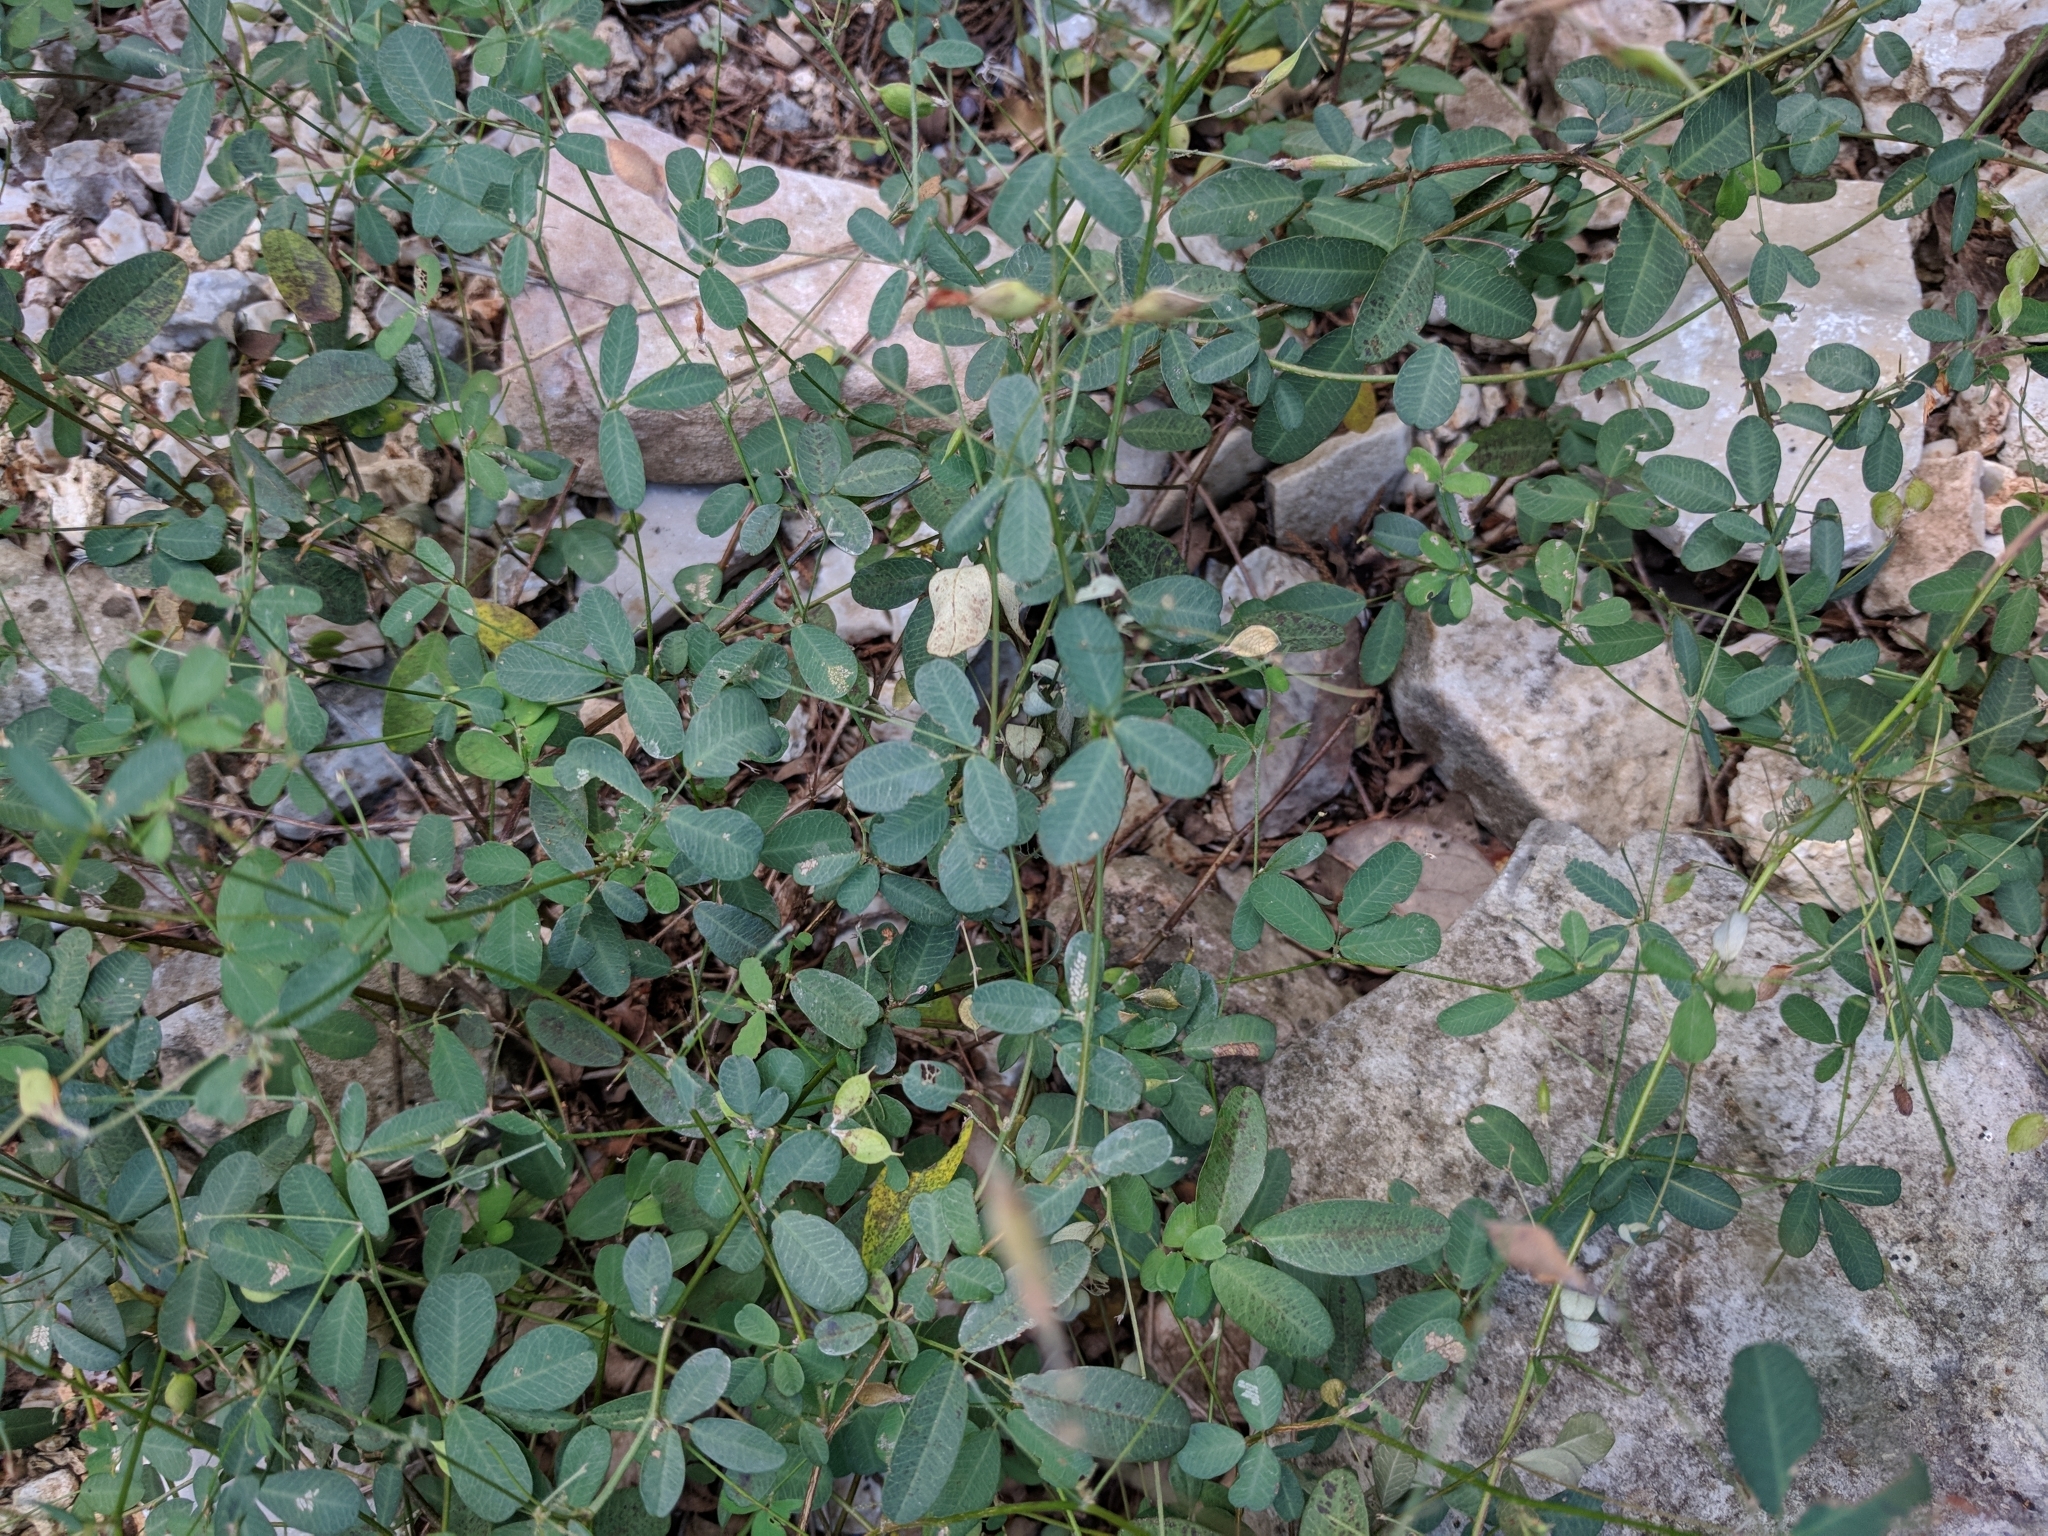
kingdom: Plantae
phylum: Tracheophyta
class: Magnoliopsida
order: Fabales
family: Fabaceae
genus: Lespedeza
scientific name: Lespedeza texana
